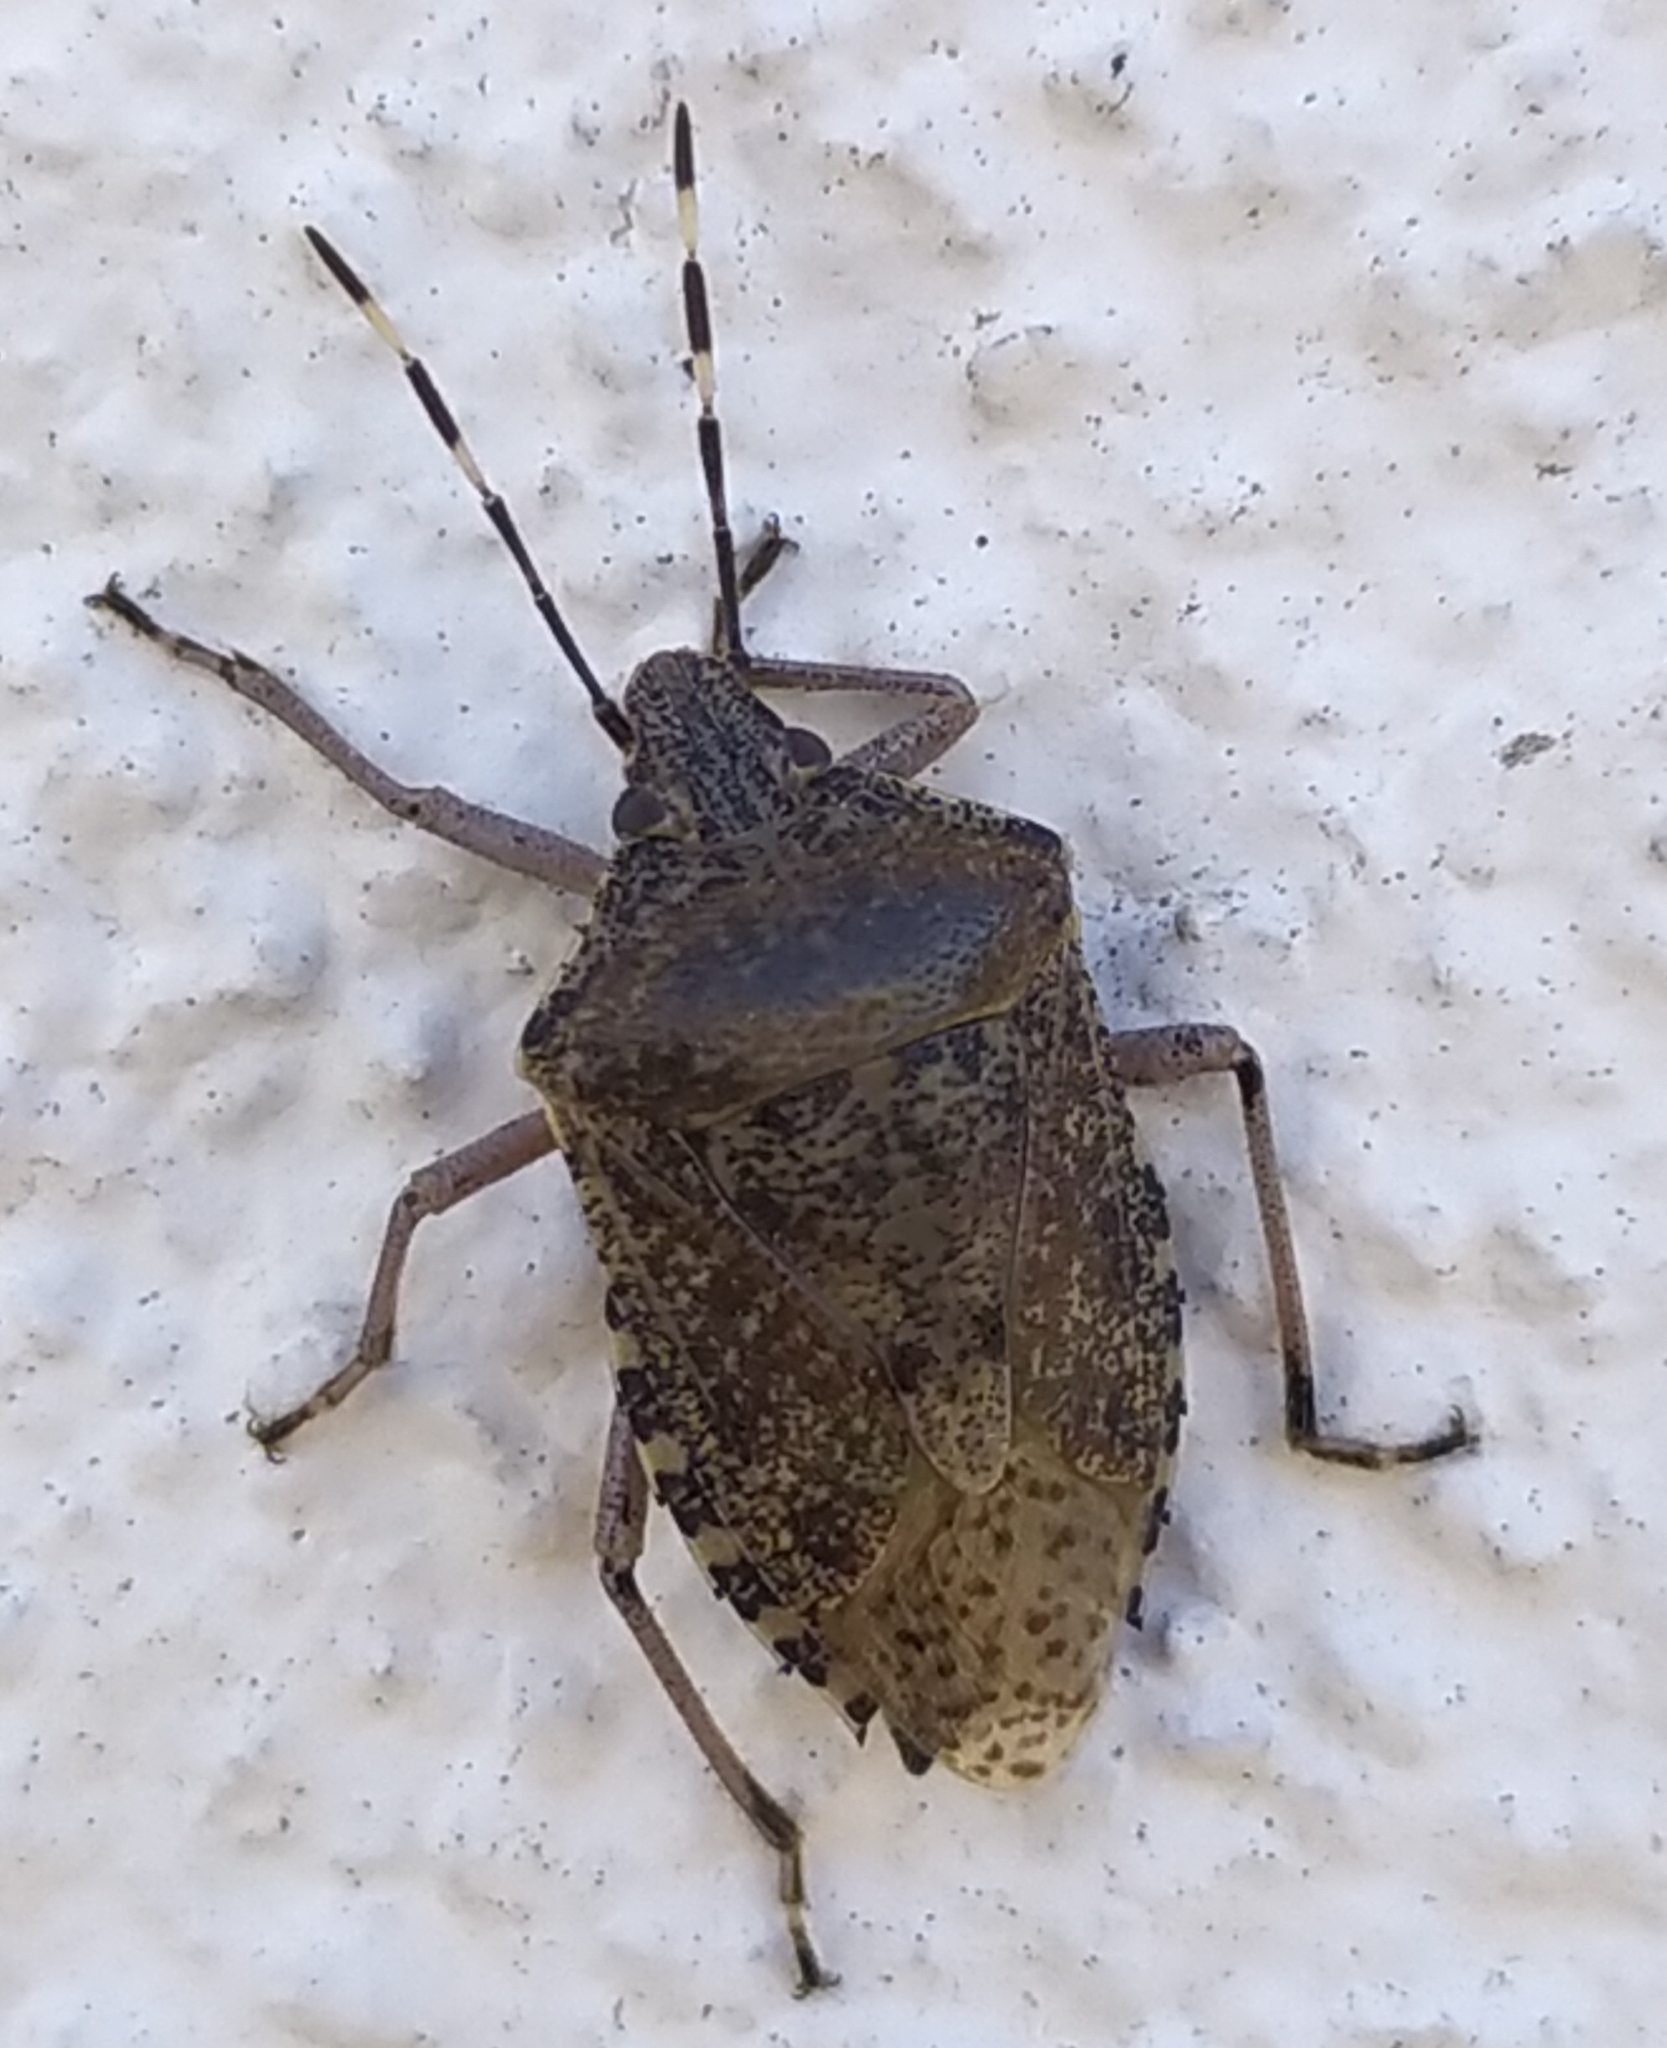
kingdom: Animalia
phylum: Arthropoda
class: Insecta
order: Hemiptera
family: Pentatomidae
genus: Rhaphigaster
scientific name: Rhaphigaster nebulosa
